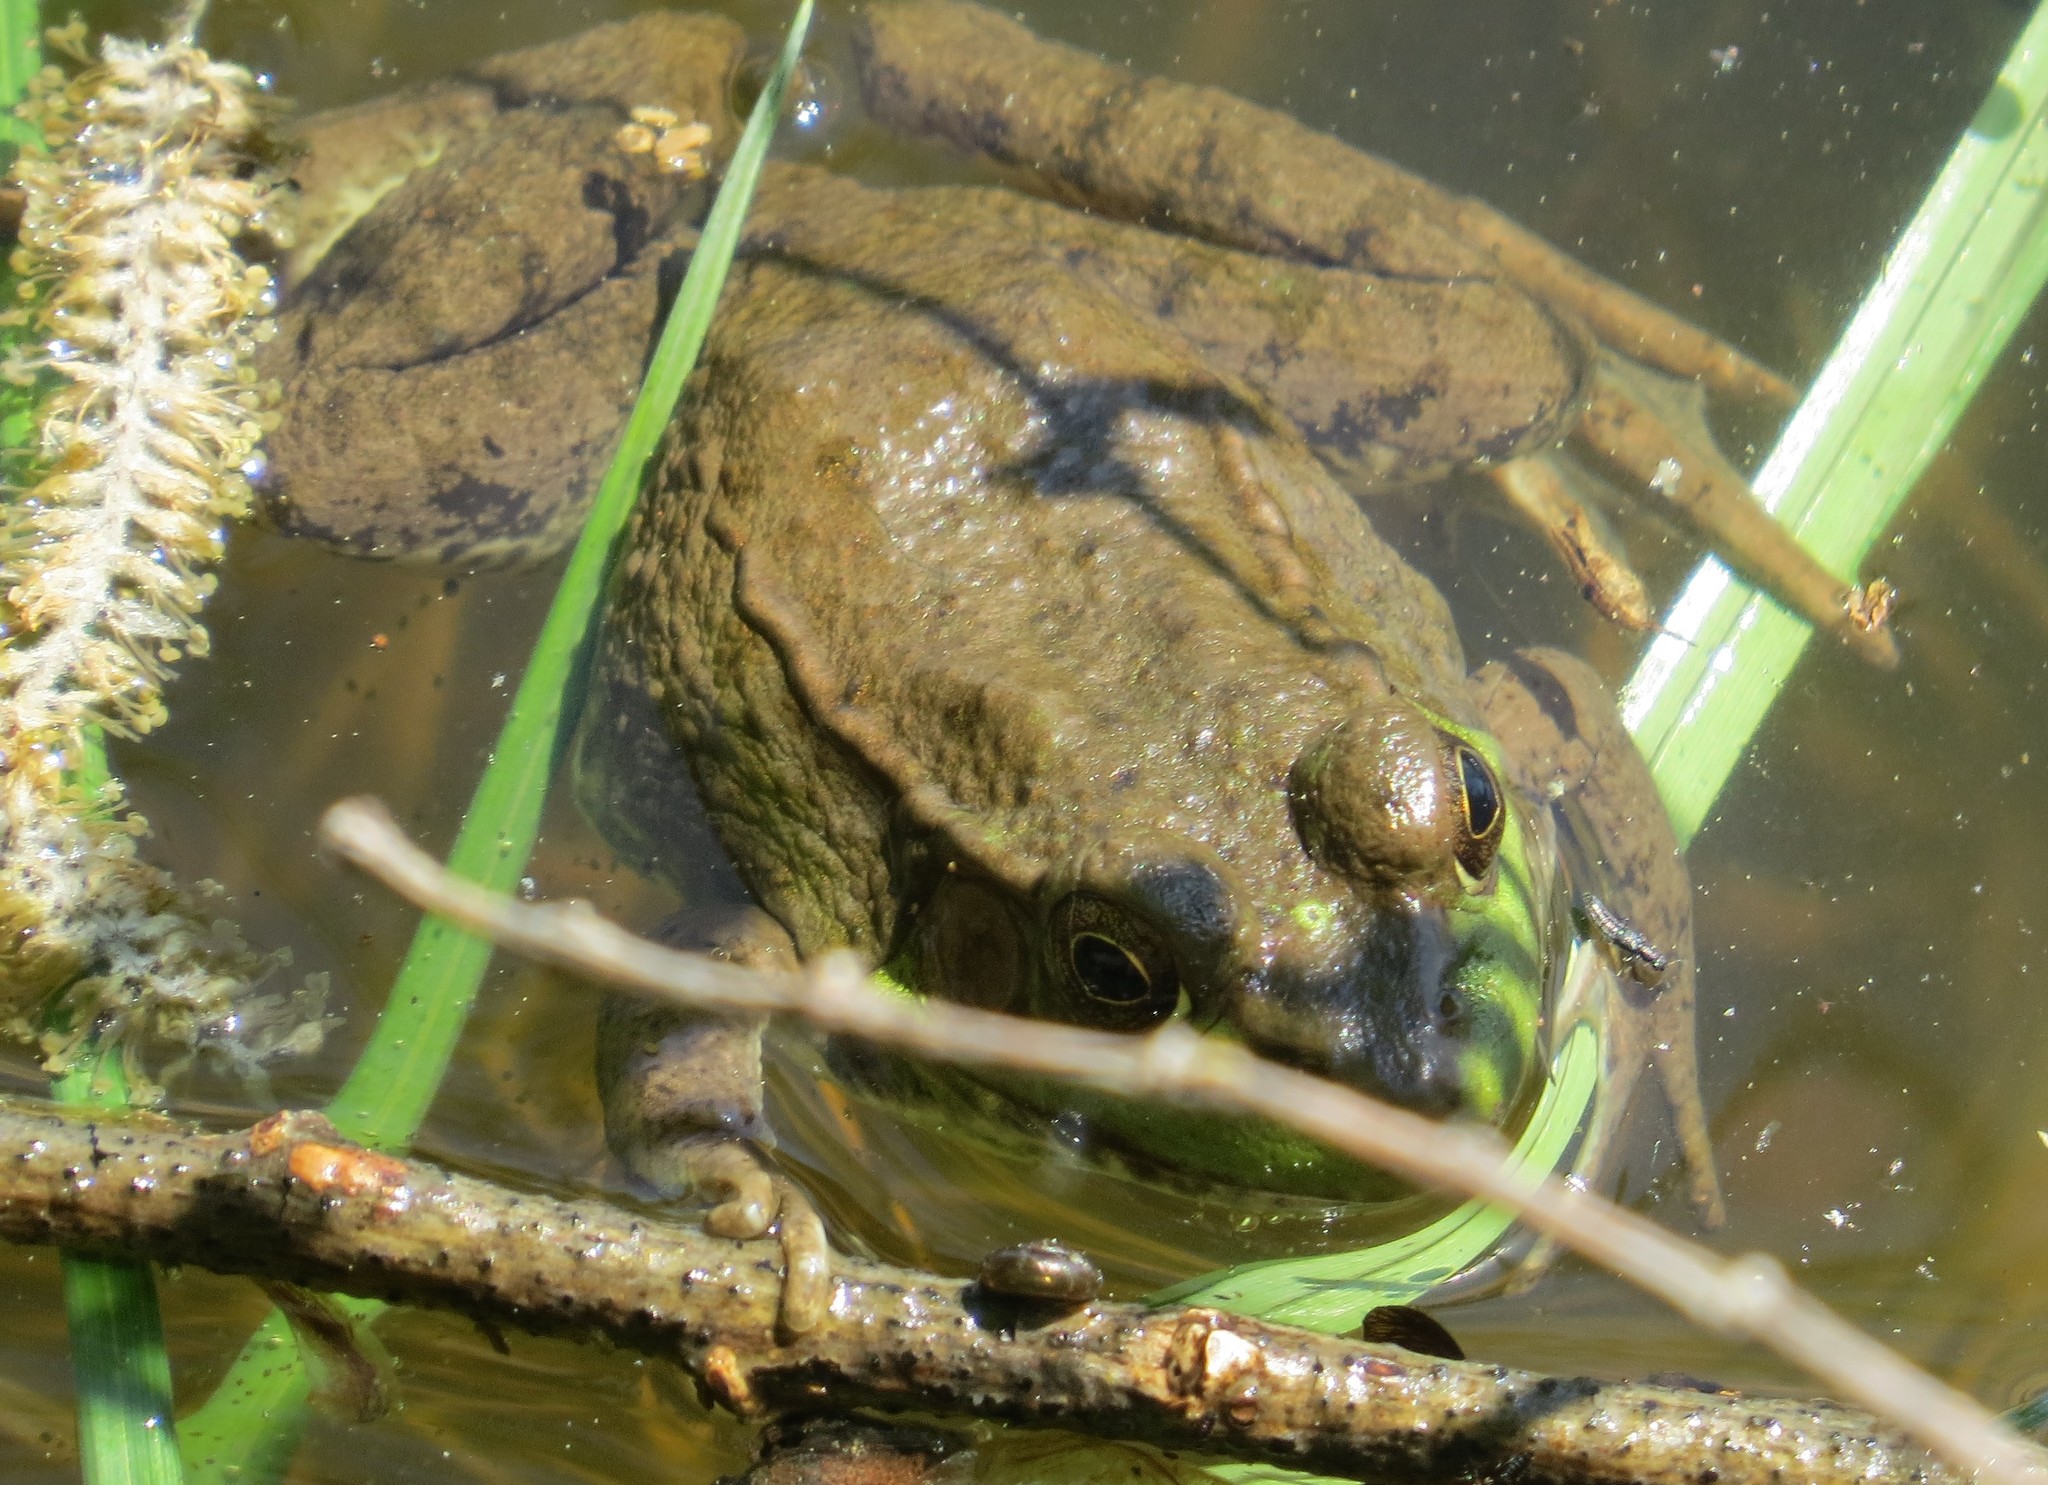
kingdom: Animalia
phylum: Chordata
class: Amphibia
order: Anura
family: Ranidae
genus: Lithobates
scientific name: Lithobates clamitans
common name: Green frog
